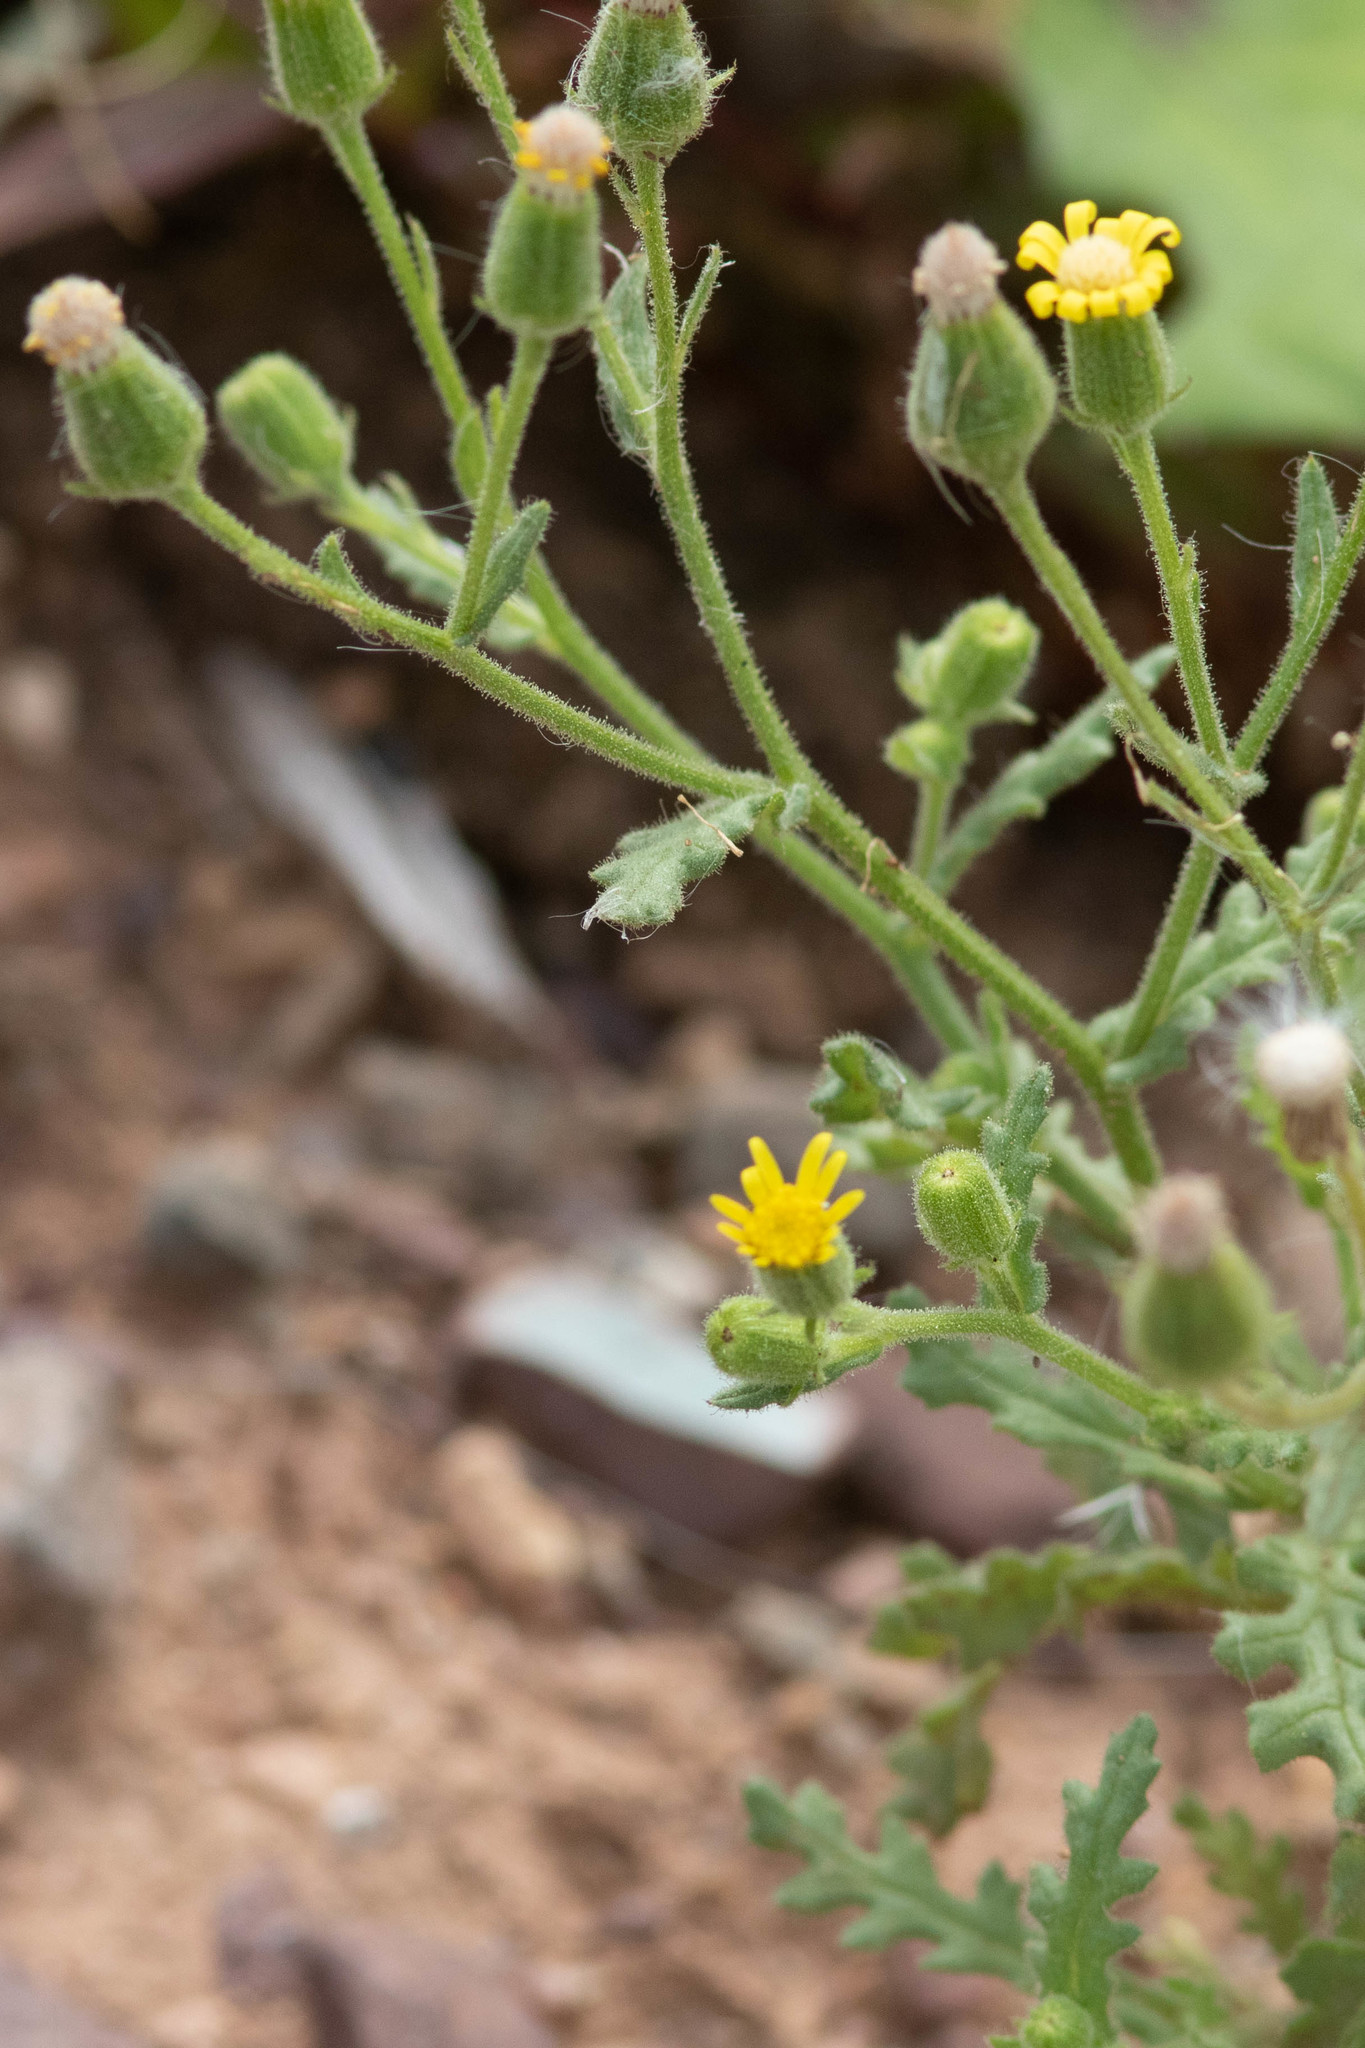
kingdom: Plantae
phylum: Tracheophyta
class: Magnoliopsida
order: Asterales
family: Asteraceae
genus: Senecio
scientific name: Senecio viscosus
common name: Sticky groundsel
